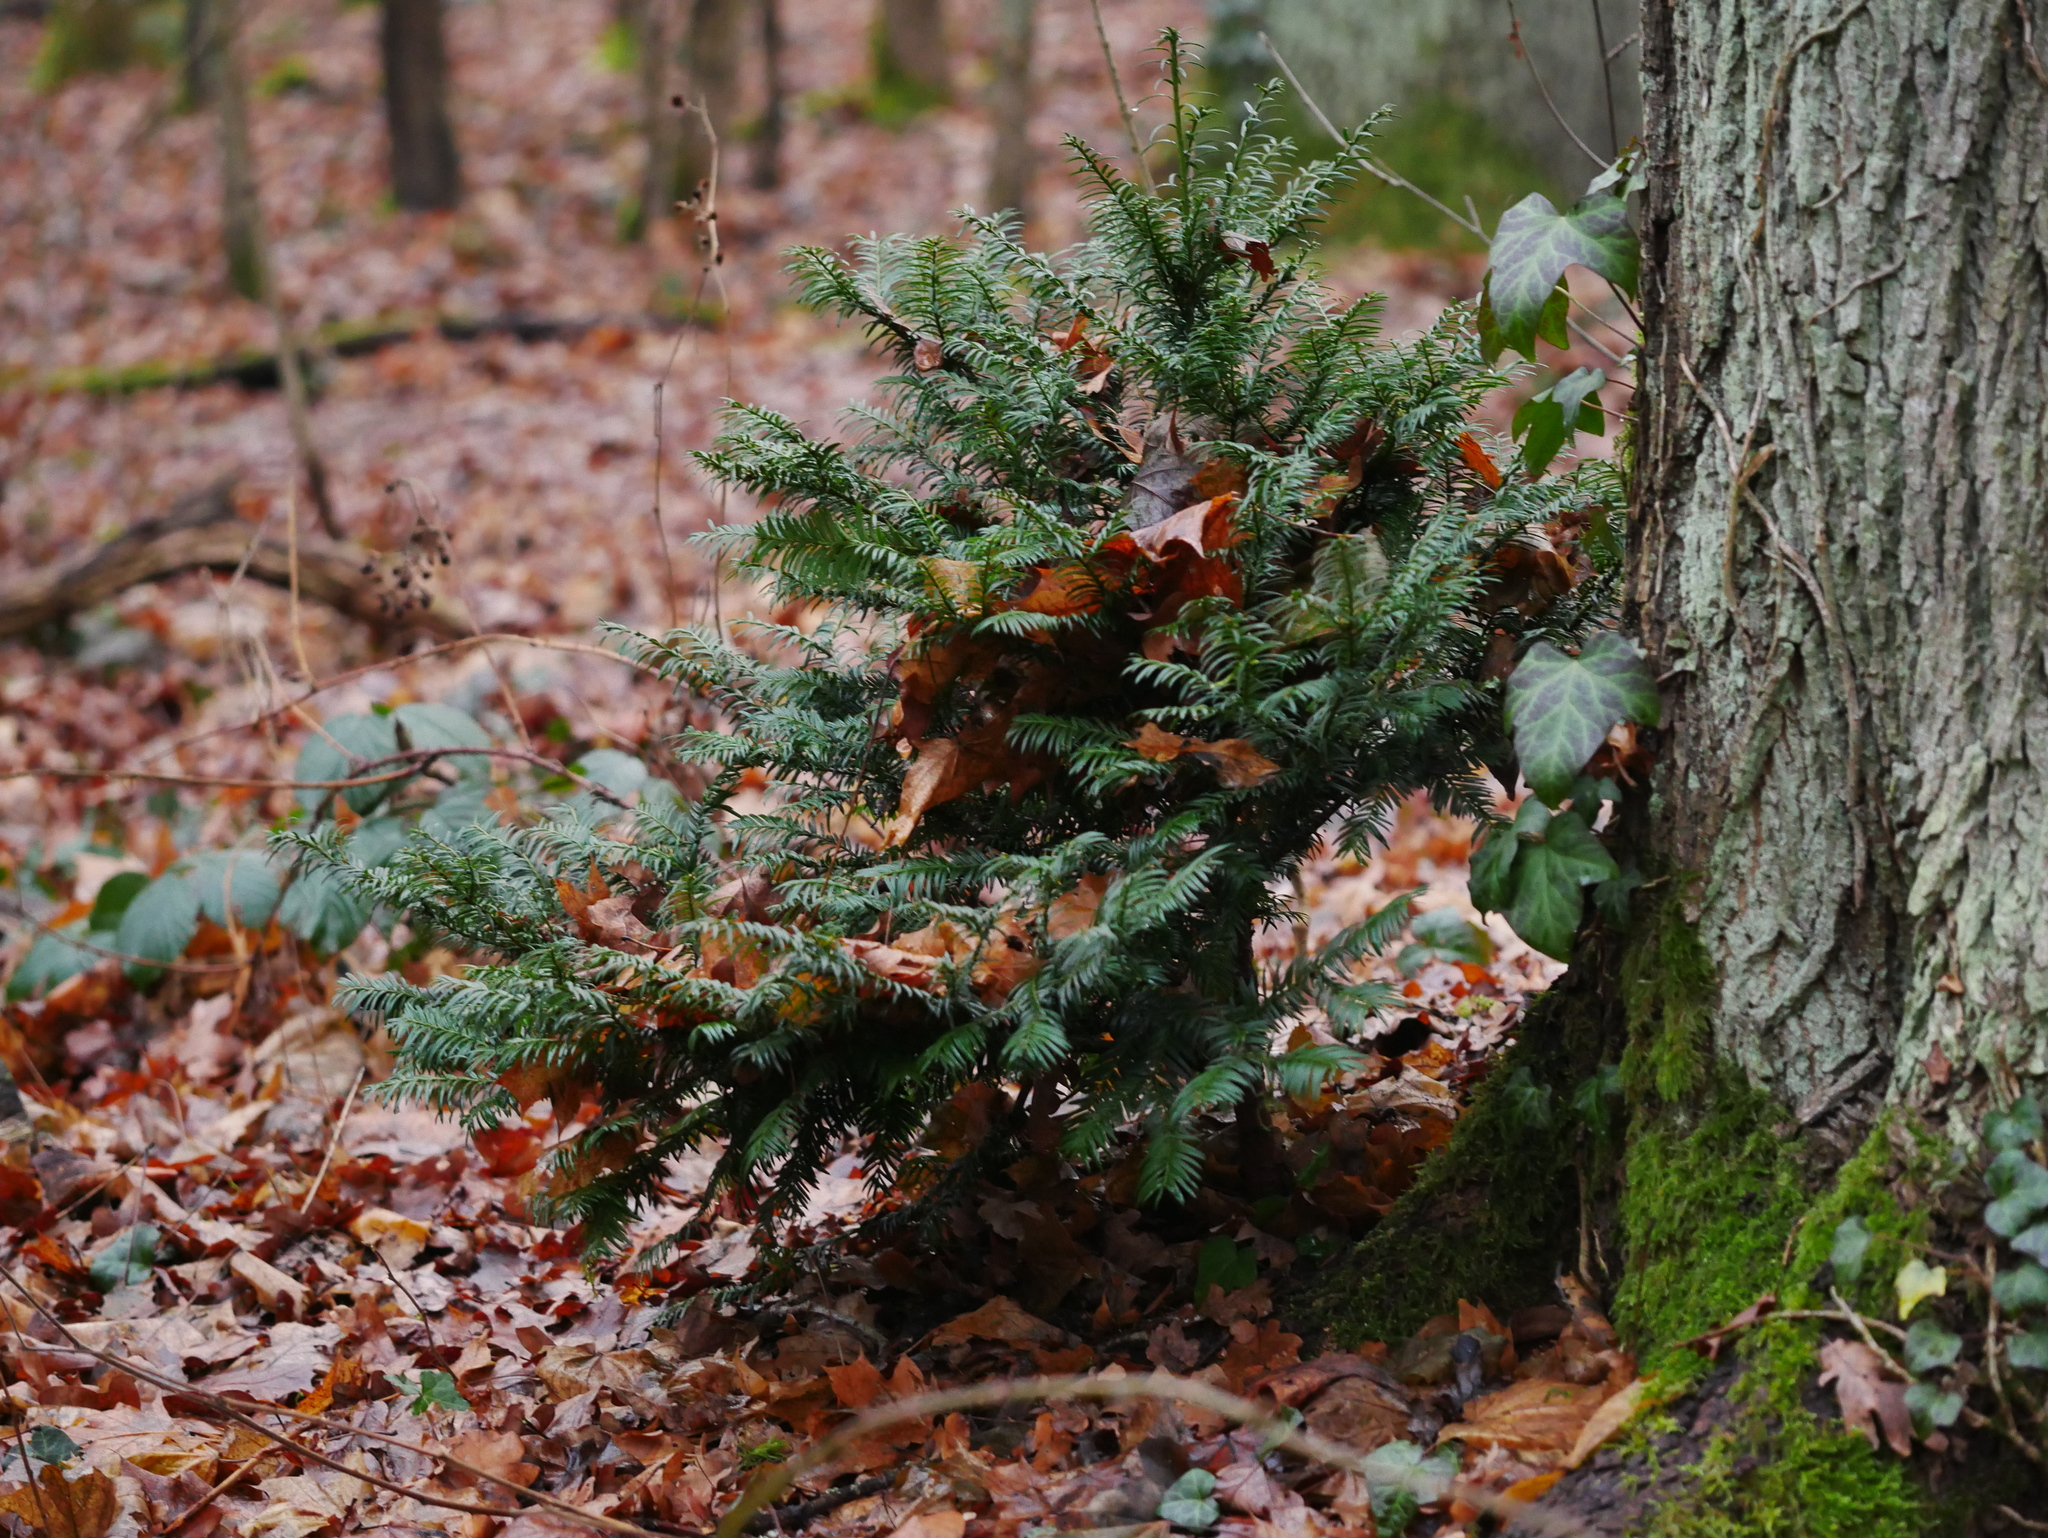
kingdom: Plantae
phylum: Tracheophyta
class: Pinopsida
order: Pinales
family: Taxaceae
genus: Taxus
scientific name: Taxus baccata
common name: Yew
